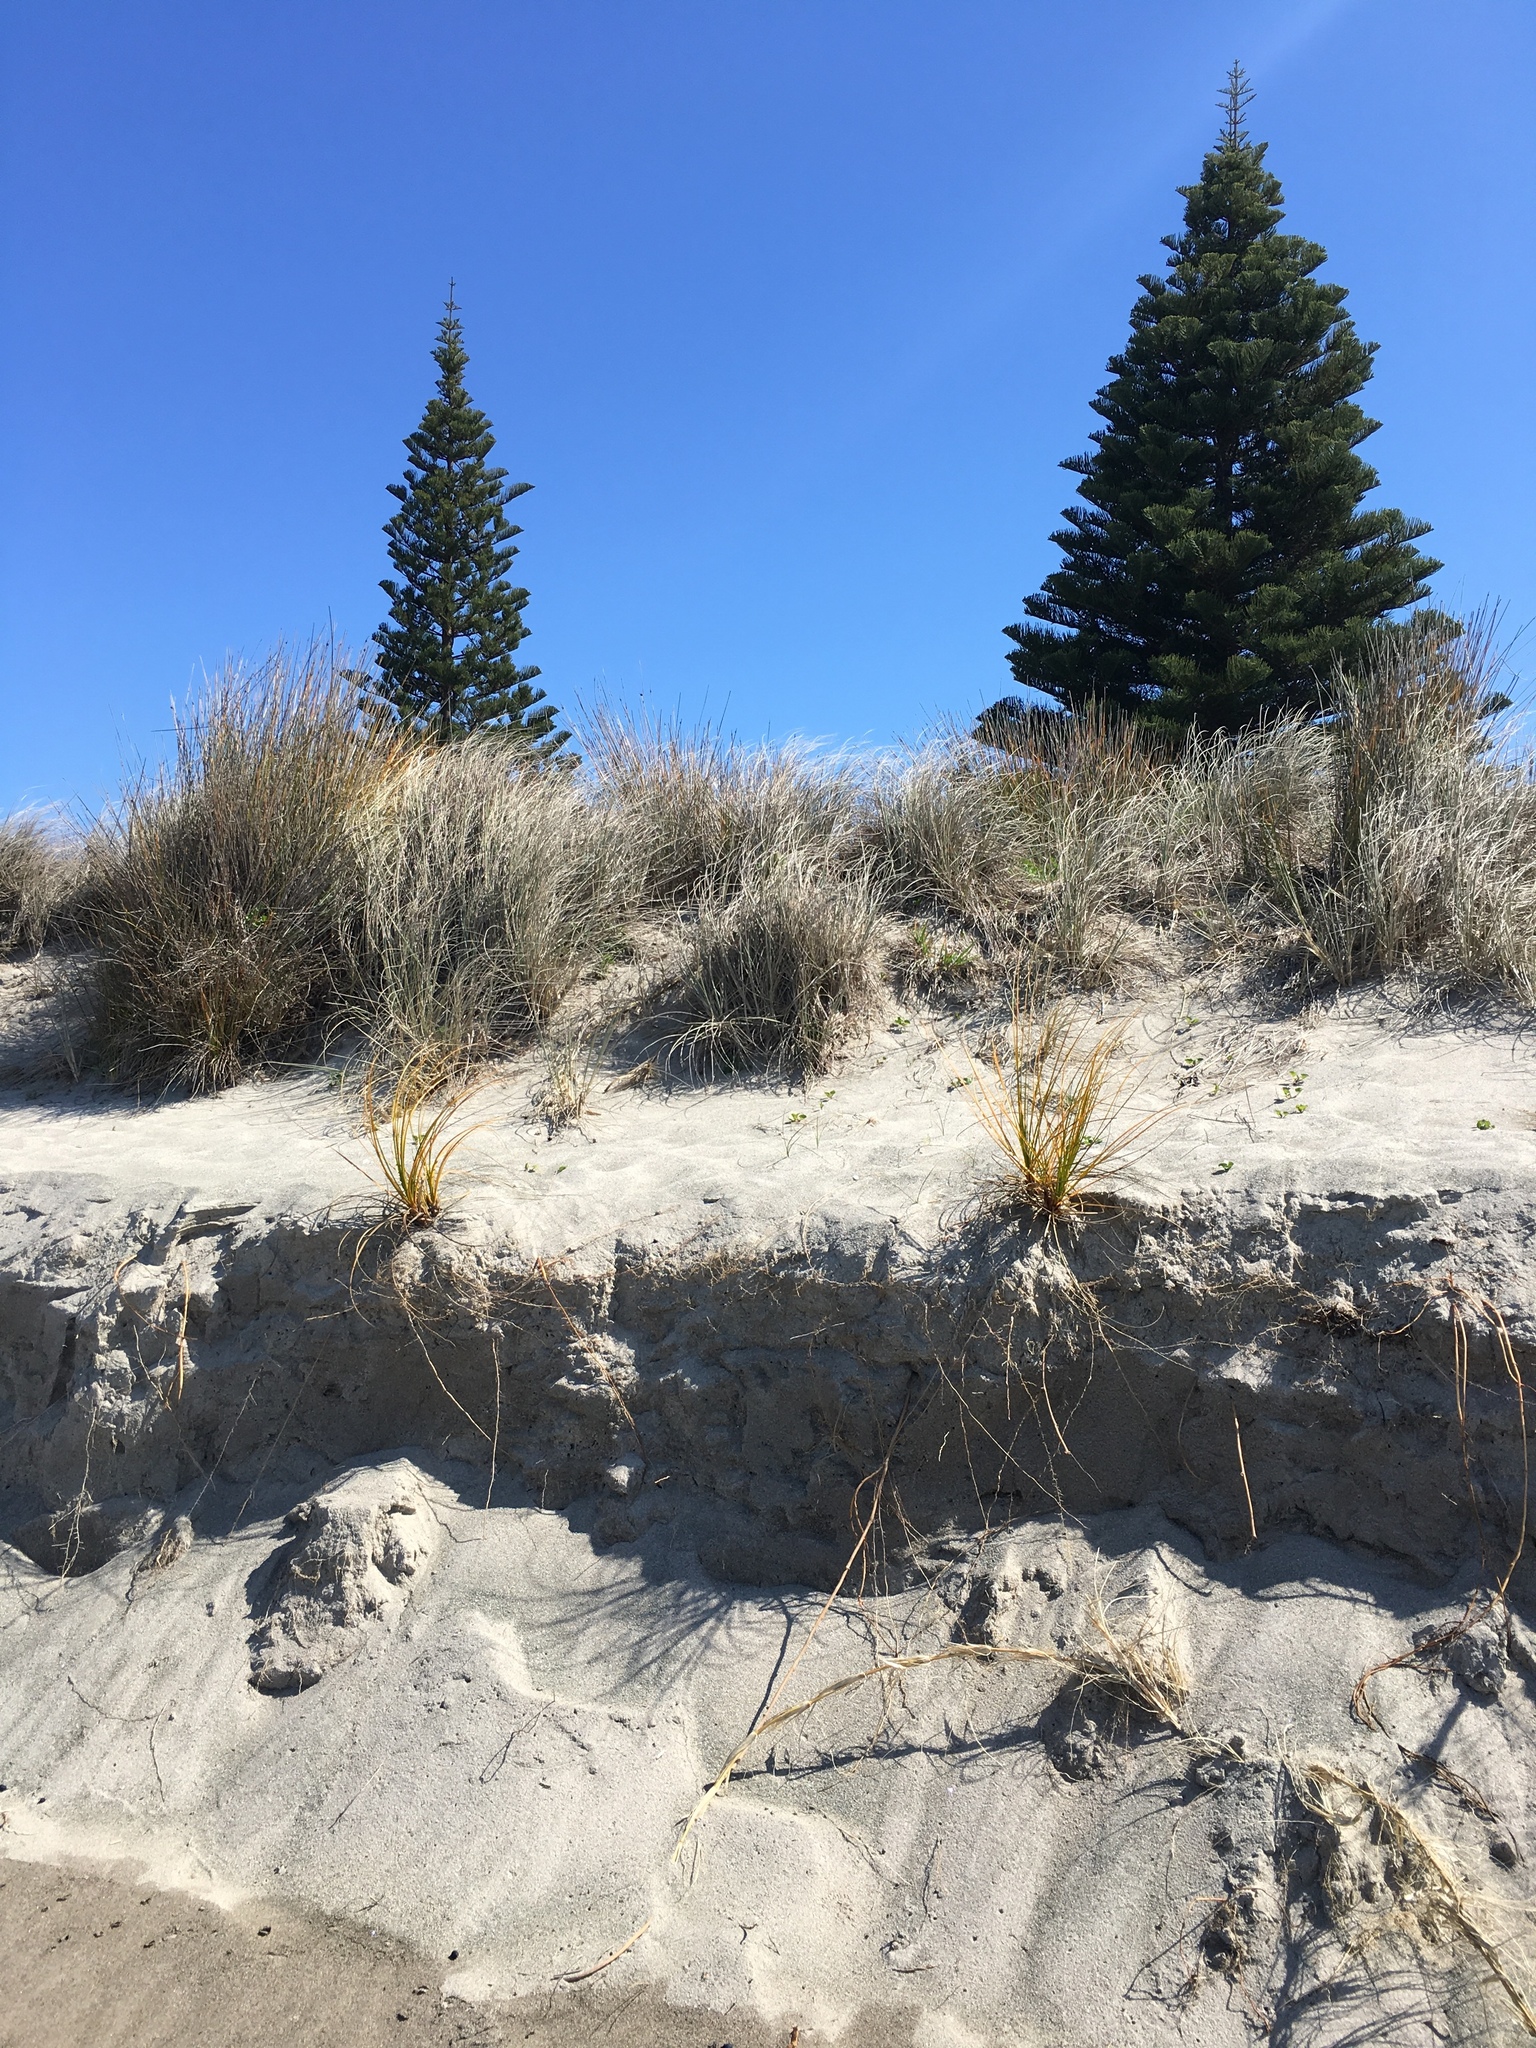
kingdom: Plantae
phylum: Tracheophyta
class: Liliopsida
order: Poales
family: Cyperaceae
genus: Ficinia
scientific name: Ficinia spiralis
